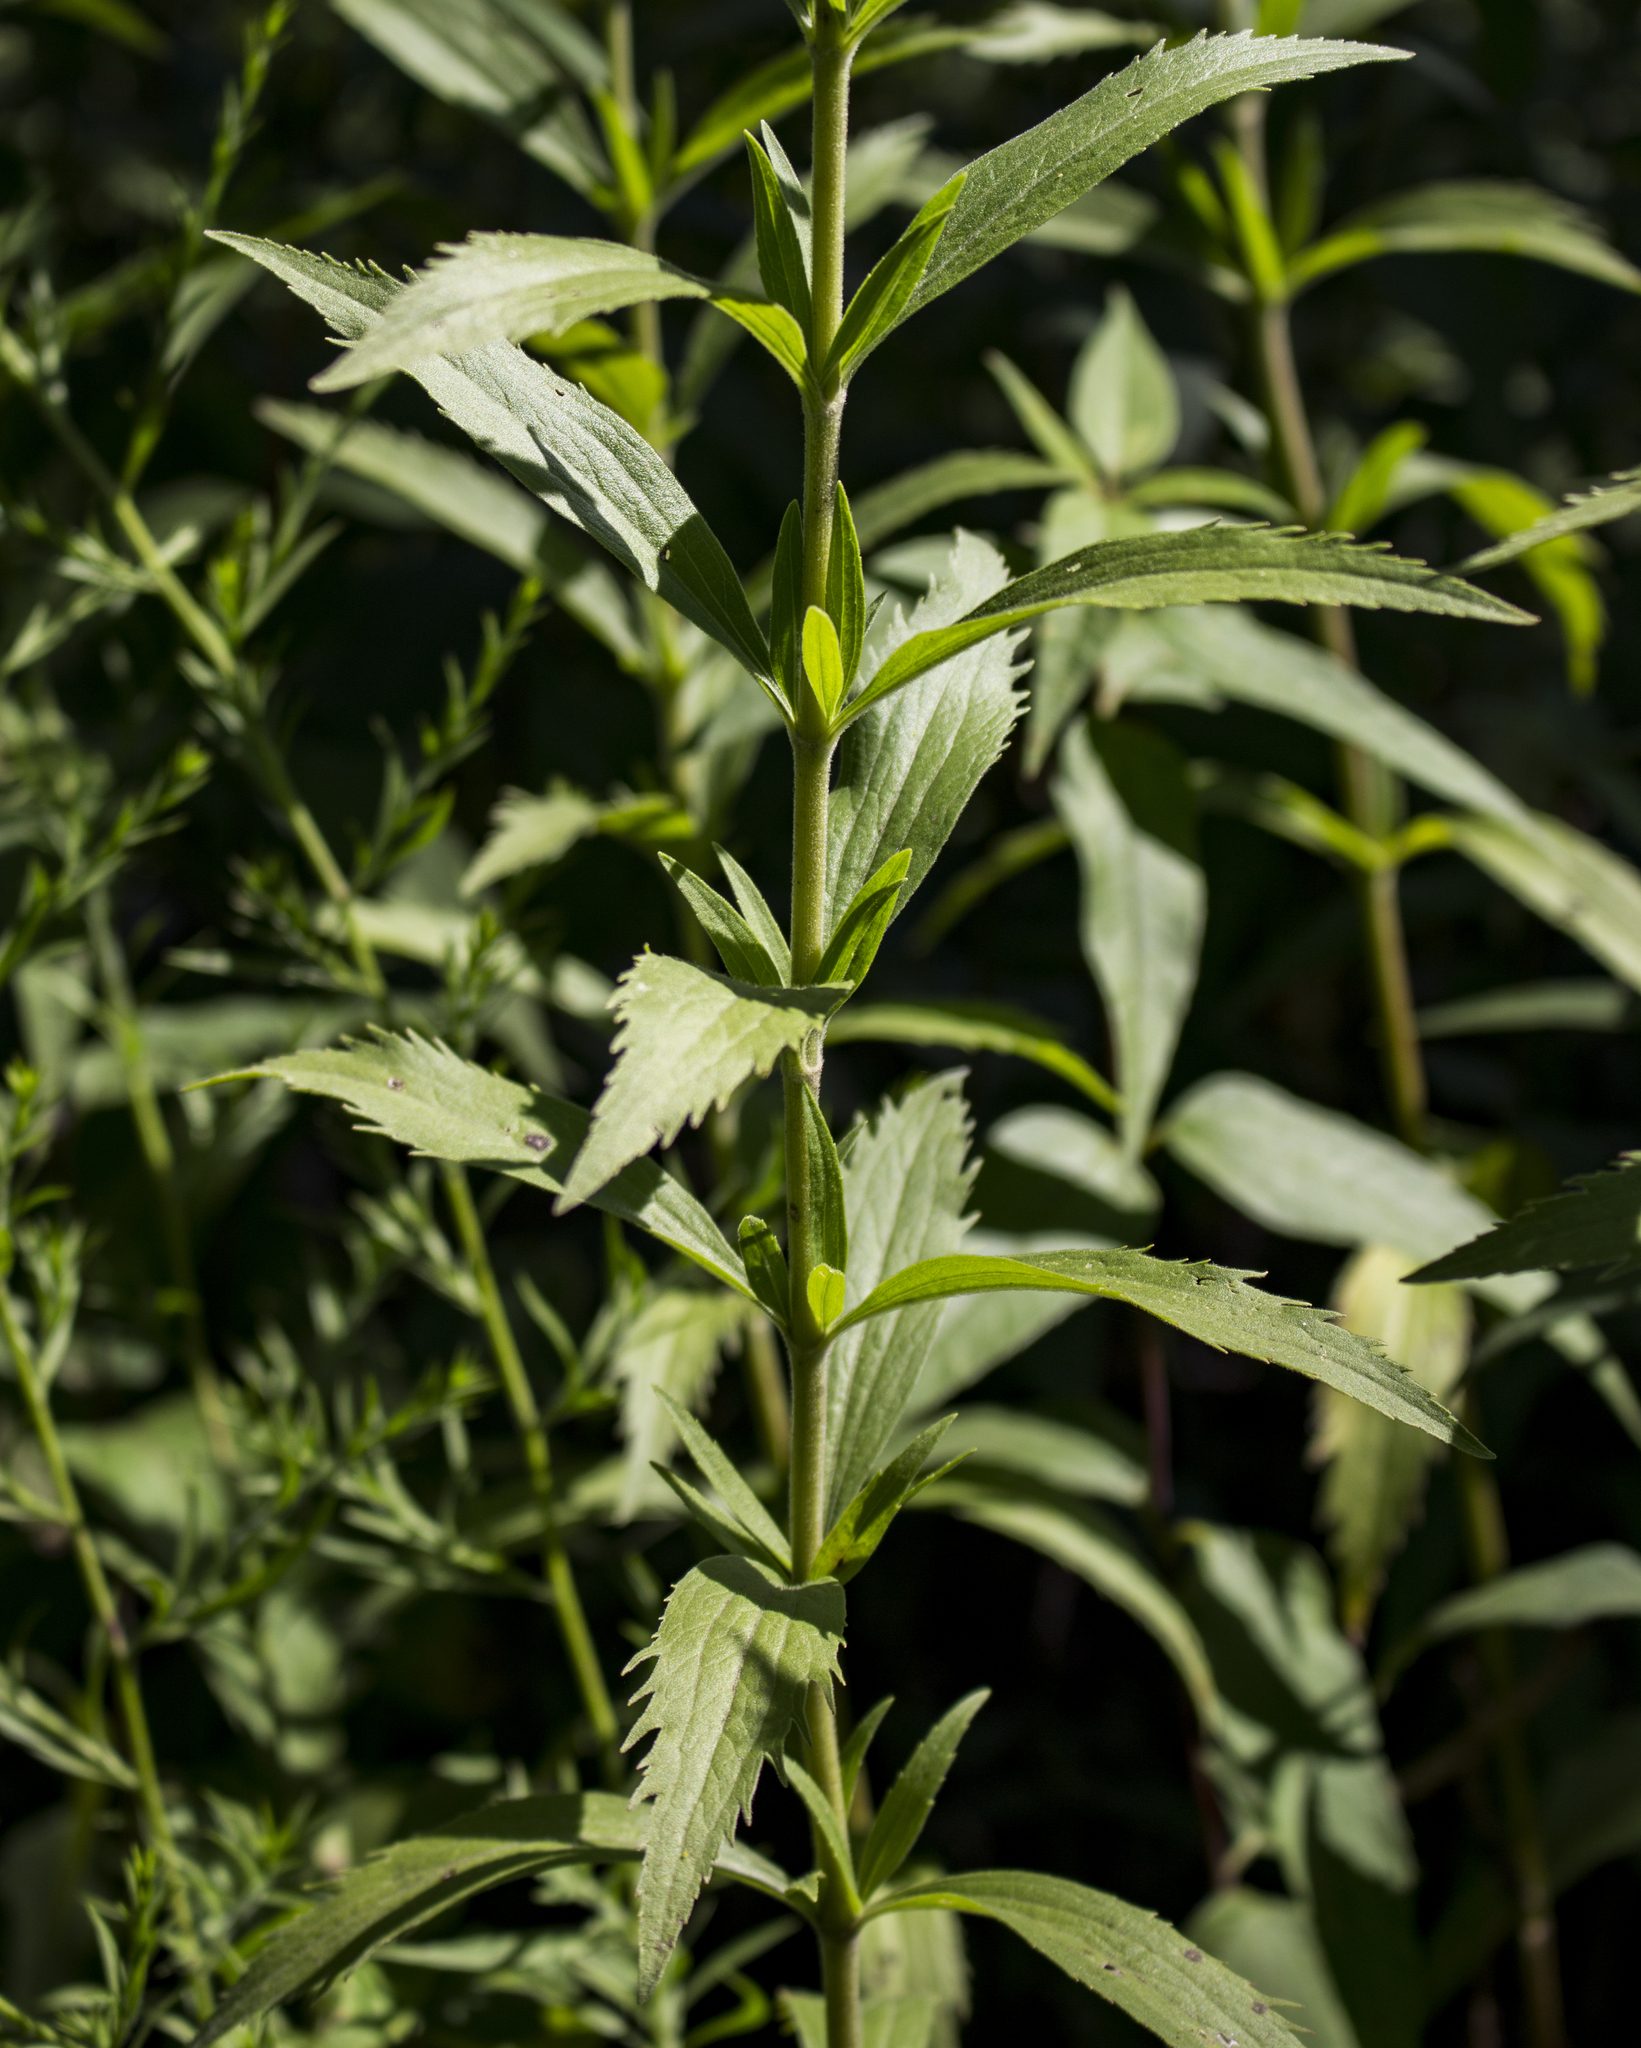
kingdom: Plantae
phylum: Tracheophyta
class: Magnoliopsida
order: Asterales
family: Asteraceae
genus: Eupatorium
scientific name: Eupatorium altissimum
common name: Tall thoroughwort
